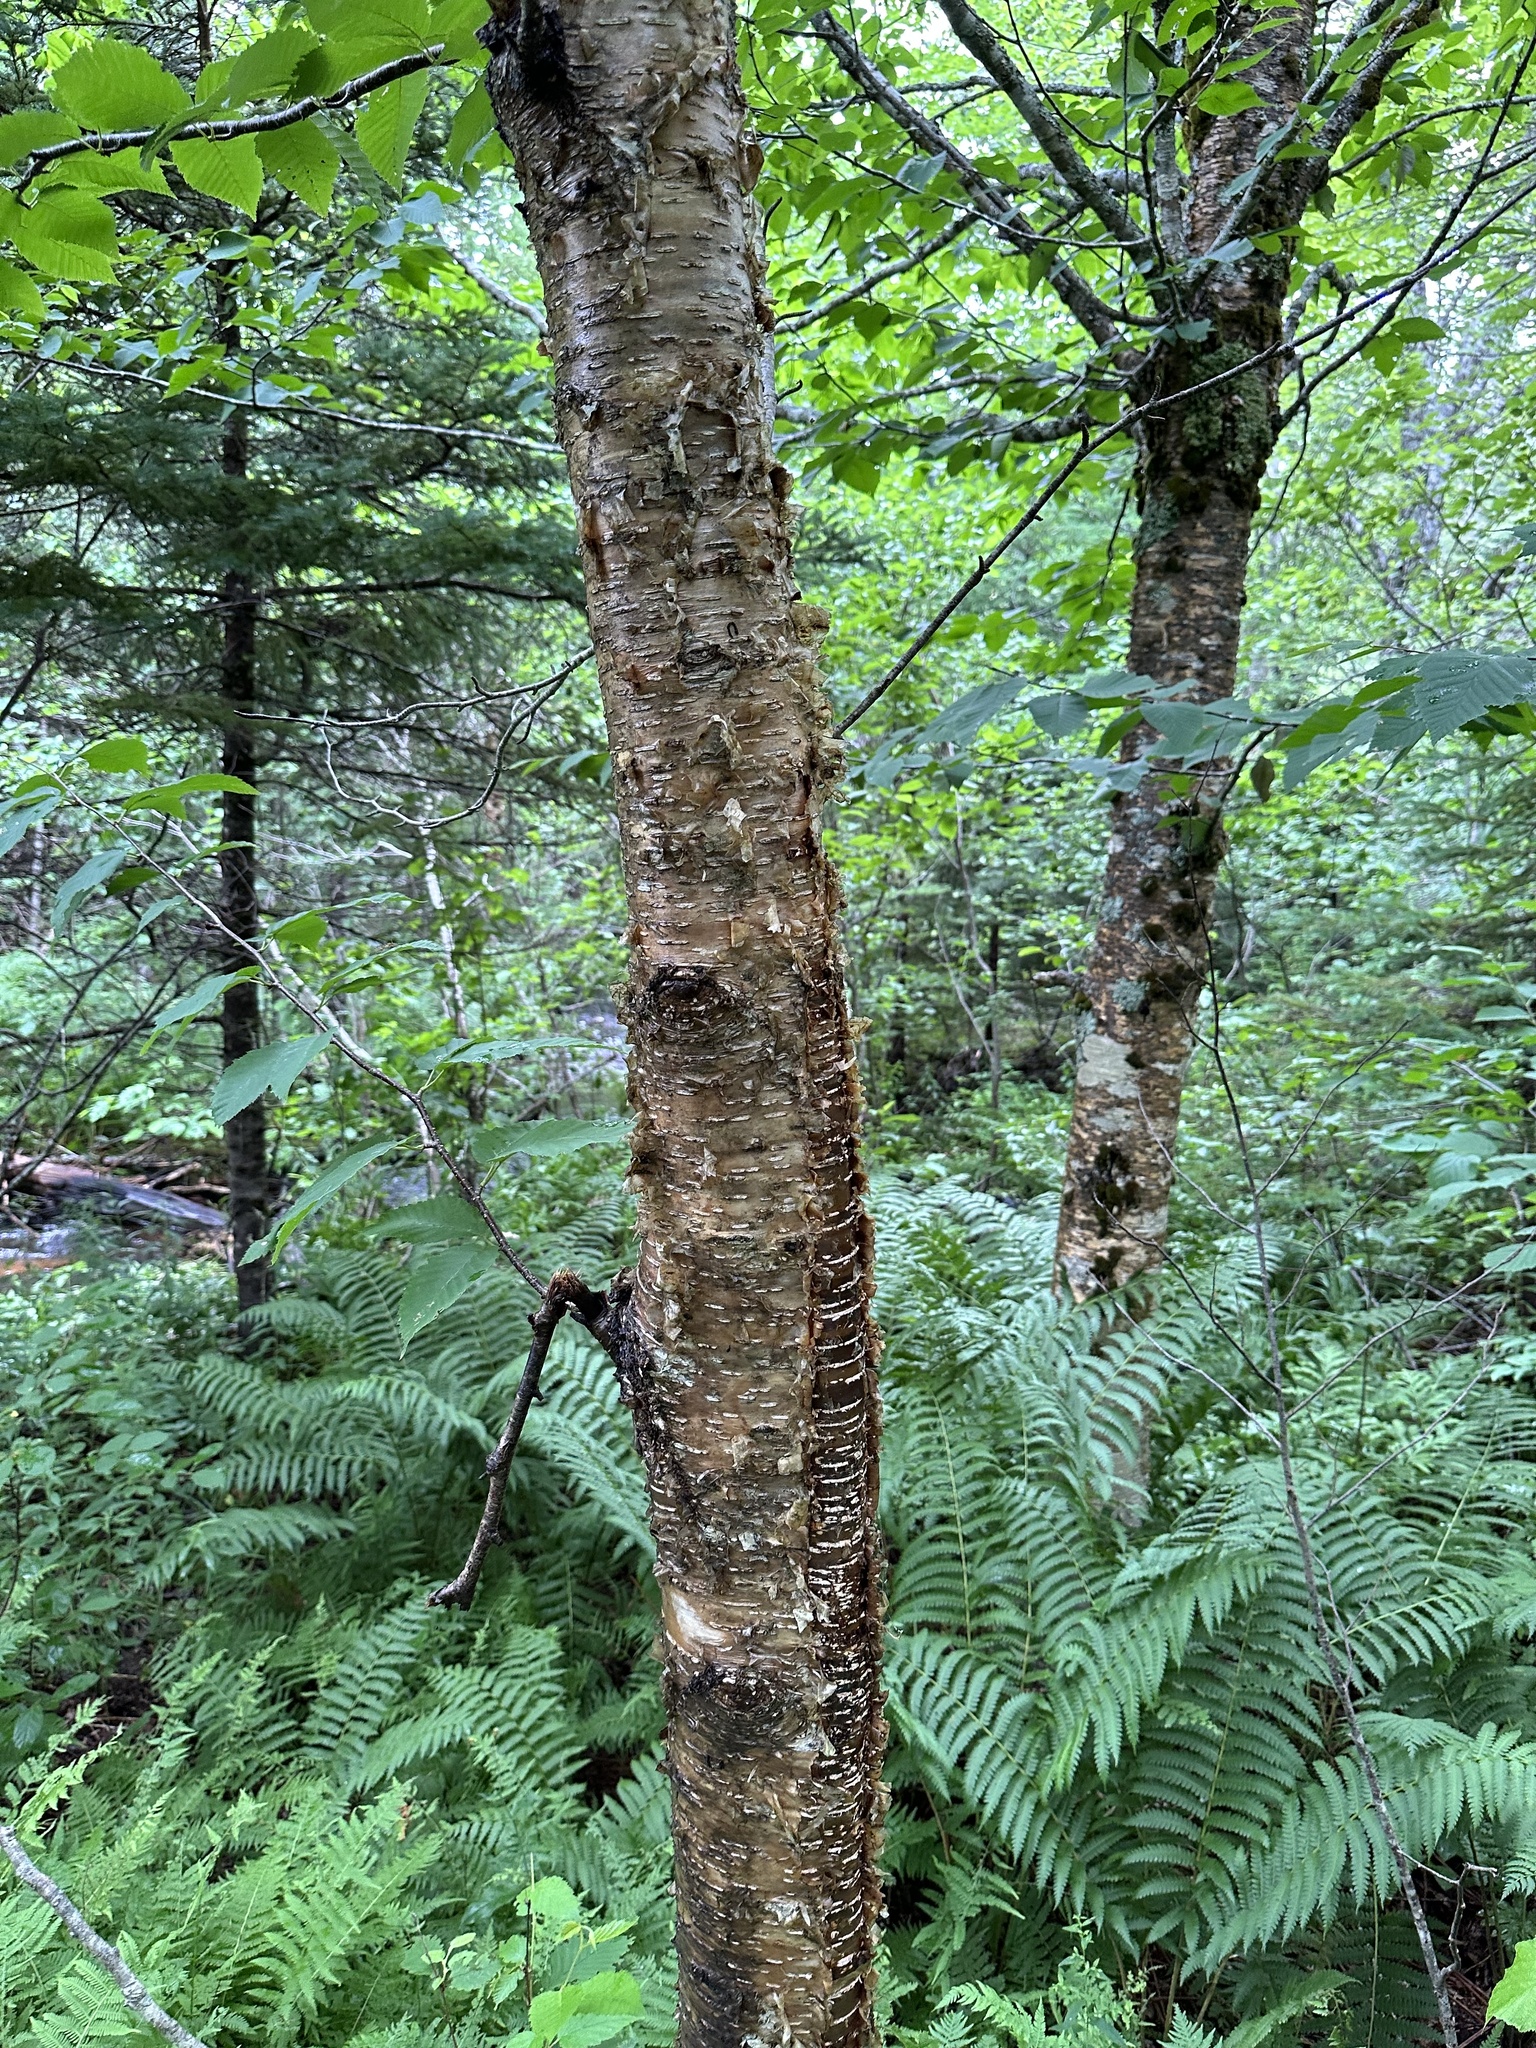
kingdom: Plantae
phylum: Tracheophyta
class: Magnoliopsida
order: Fagales
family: Betulaceae
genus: Betula
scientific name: Betula alleghaniensis
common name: Yellow birch
